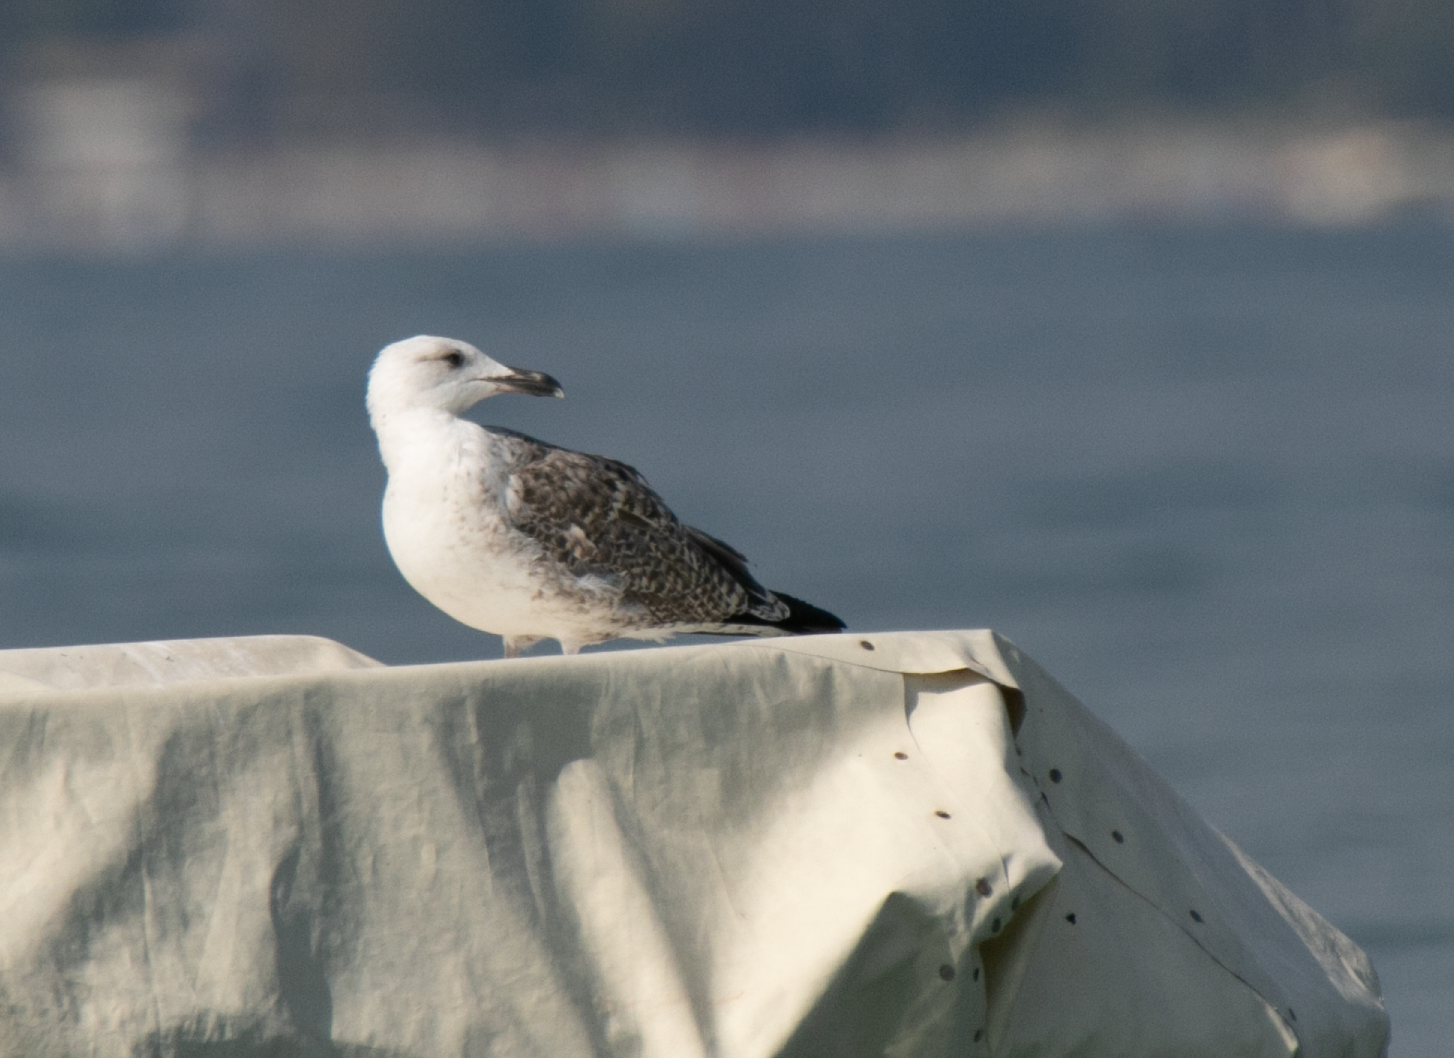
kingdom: Animalia
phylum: Chordata
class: Aves
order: Charadriiformes
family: Laridae
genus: Larus
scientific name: Larus michahellis
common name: Yellow-legged gull
